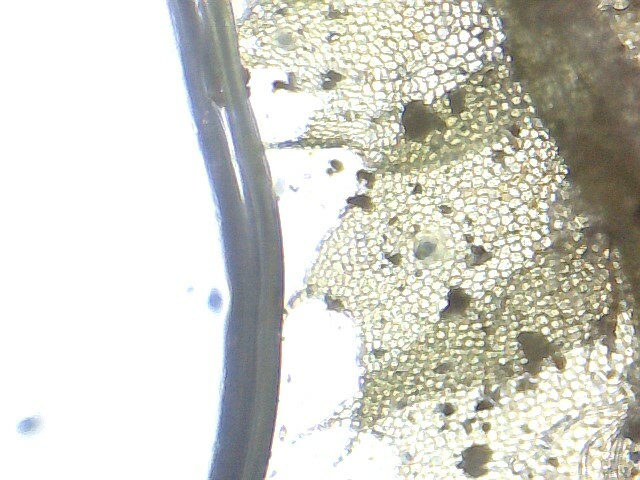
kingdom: Plantae
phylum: Marchantiophyta
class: Jungermanniopsida
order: Jungermanniales
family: Lophocoleaceae
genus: Lophocolea
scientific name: Lophocolea bidentata
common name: Bifid crestwort
